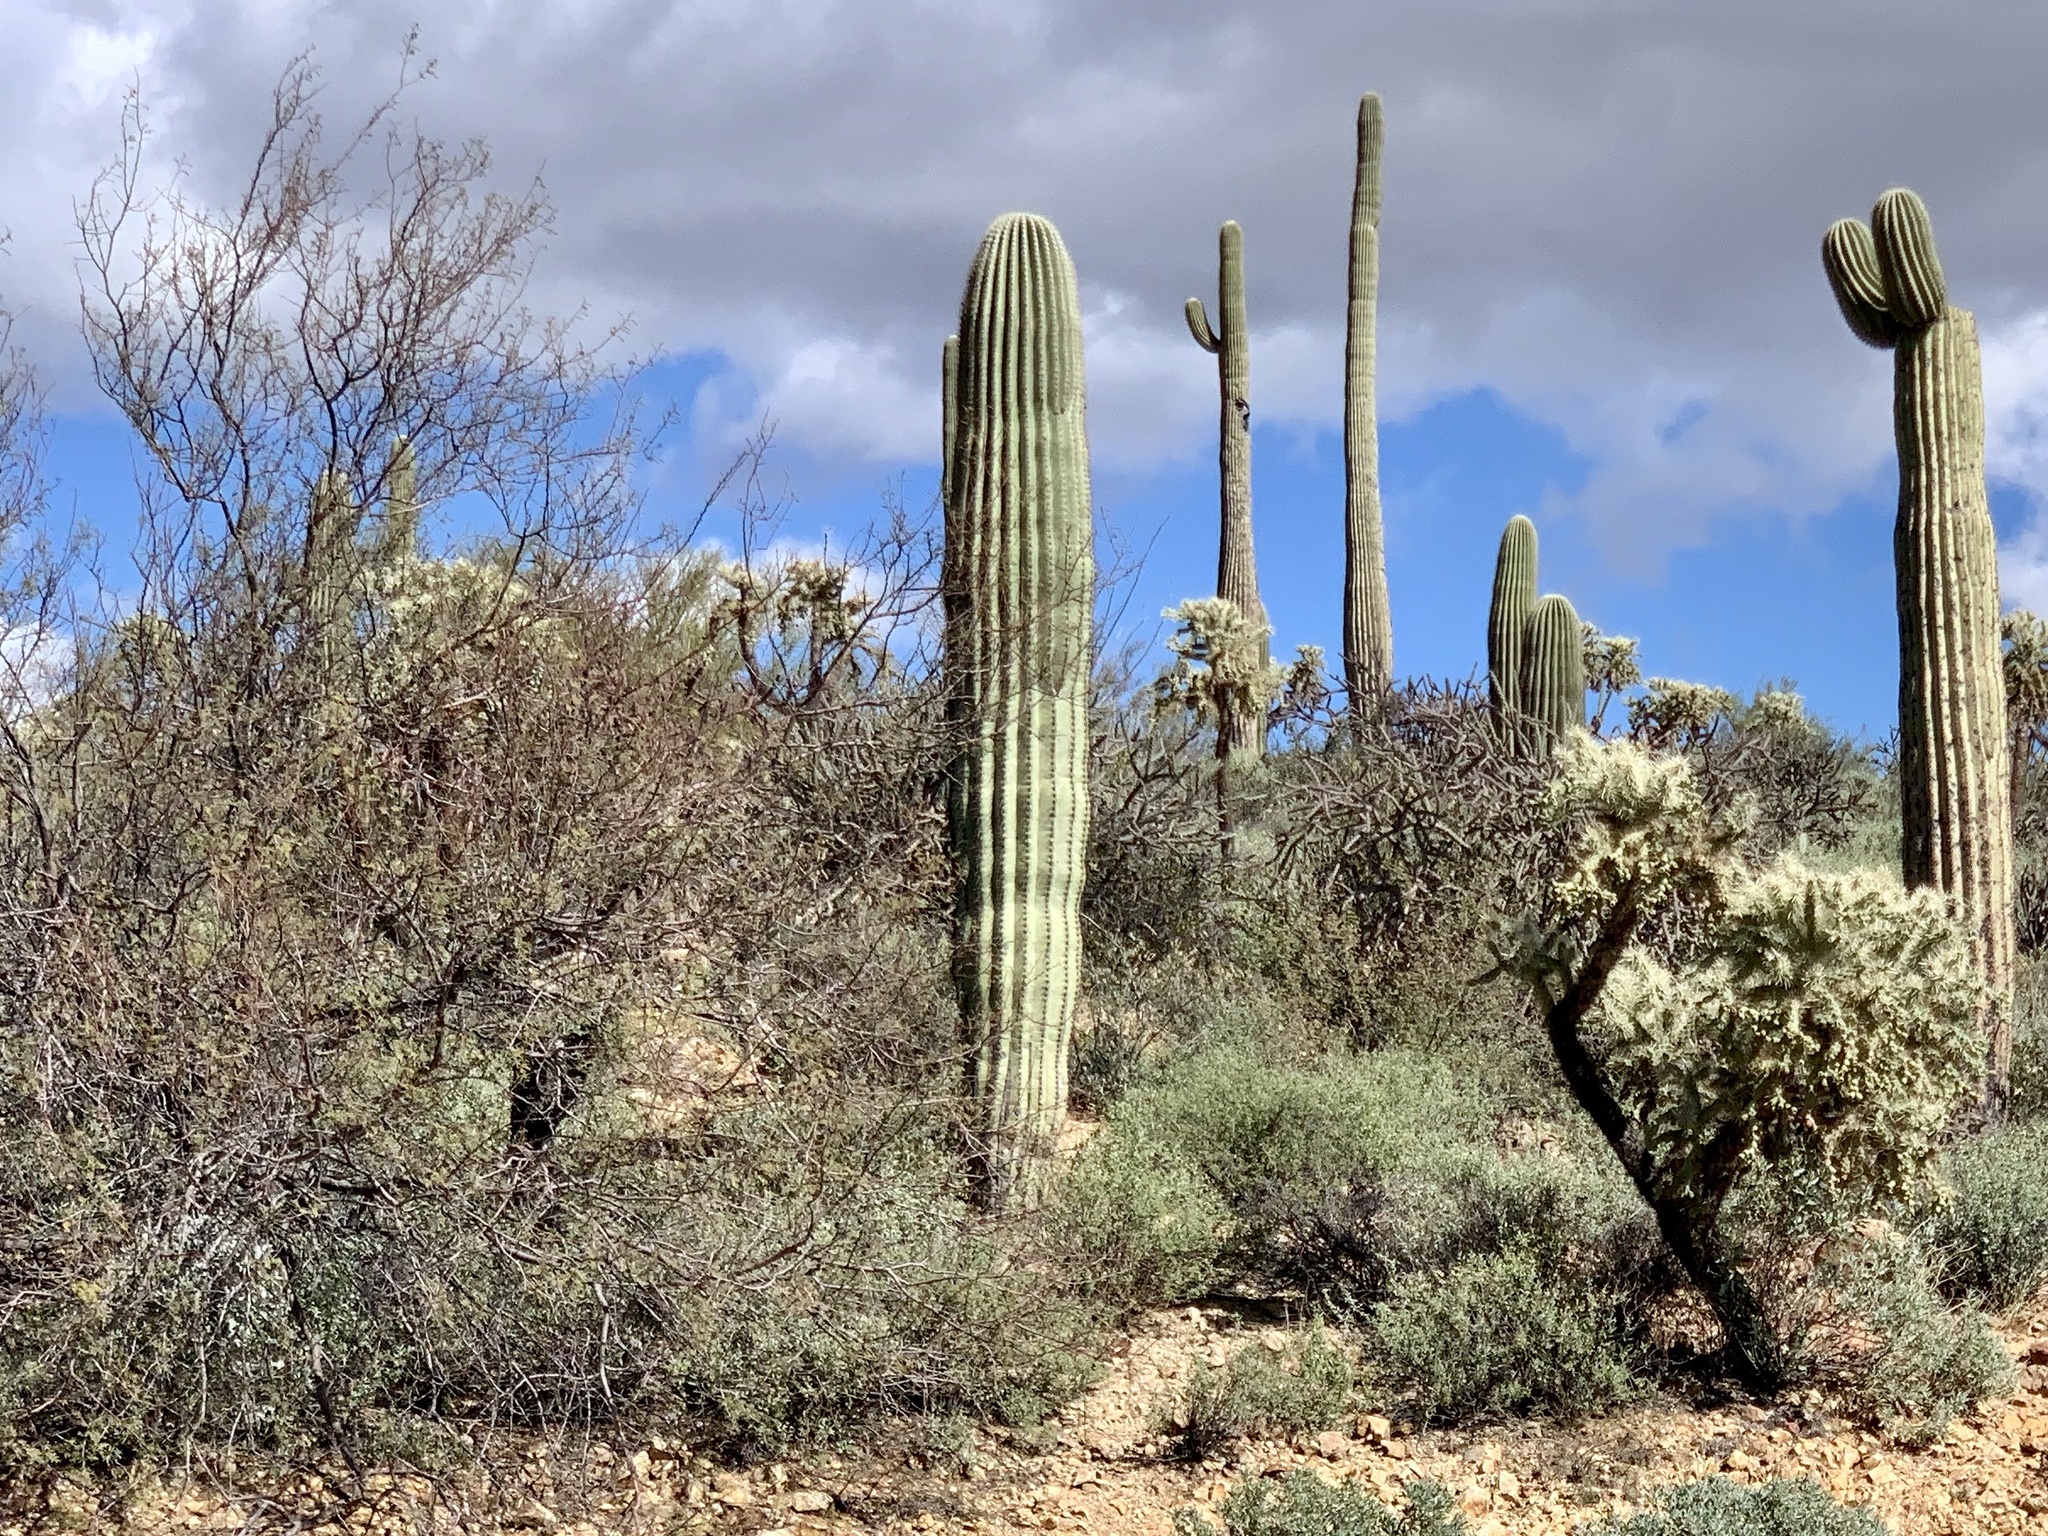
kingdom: Plantae
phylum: Tracheophyta
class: Magnoliopsida
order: Caryophyllales
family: Cactaceae
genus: Carnegiea
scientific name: Carnegiea gigantea
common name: Saguaro
